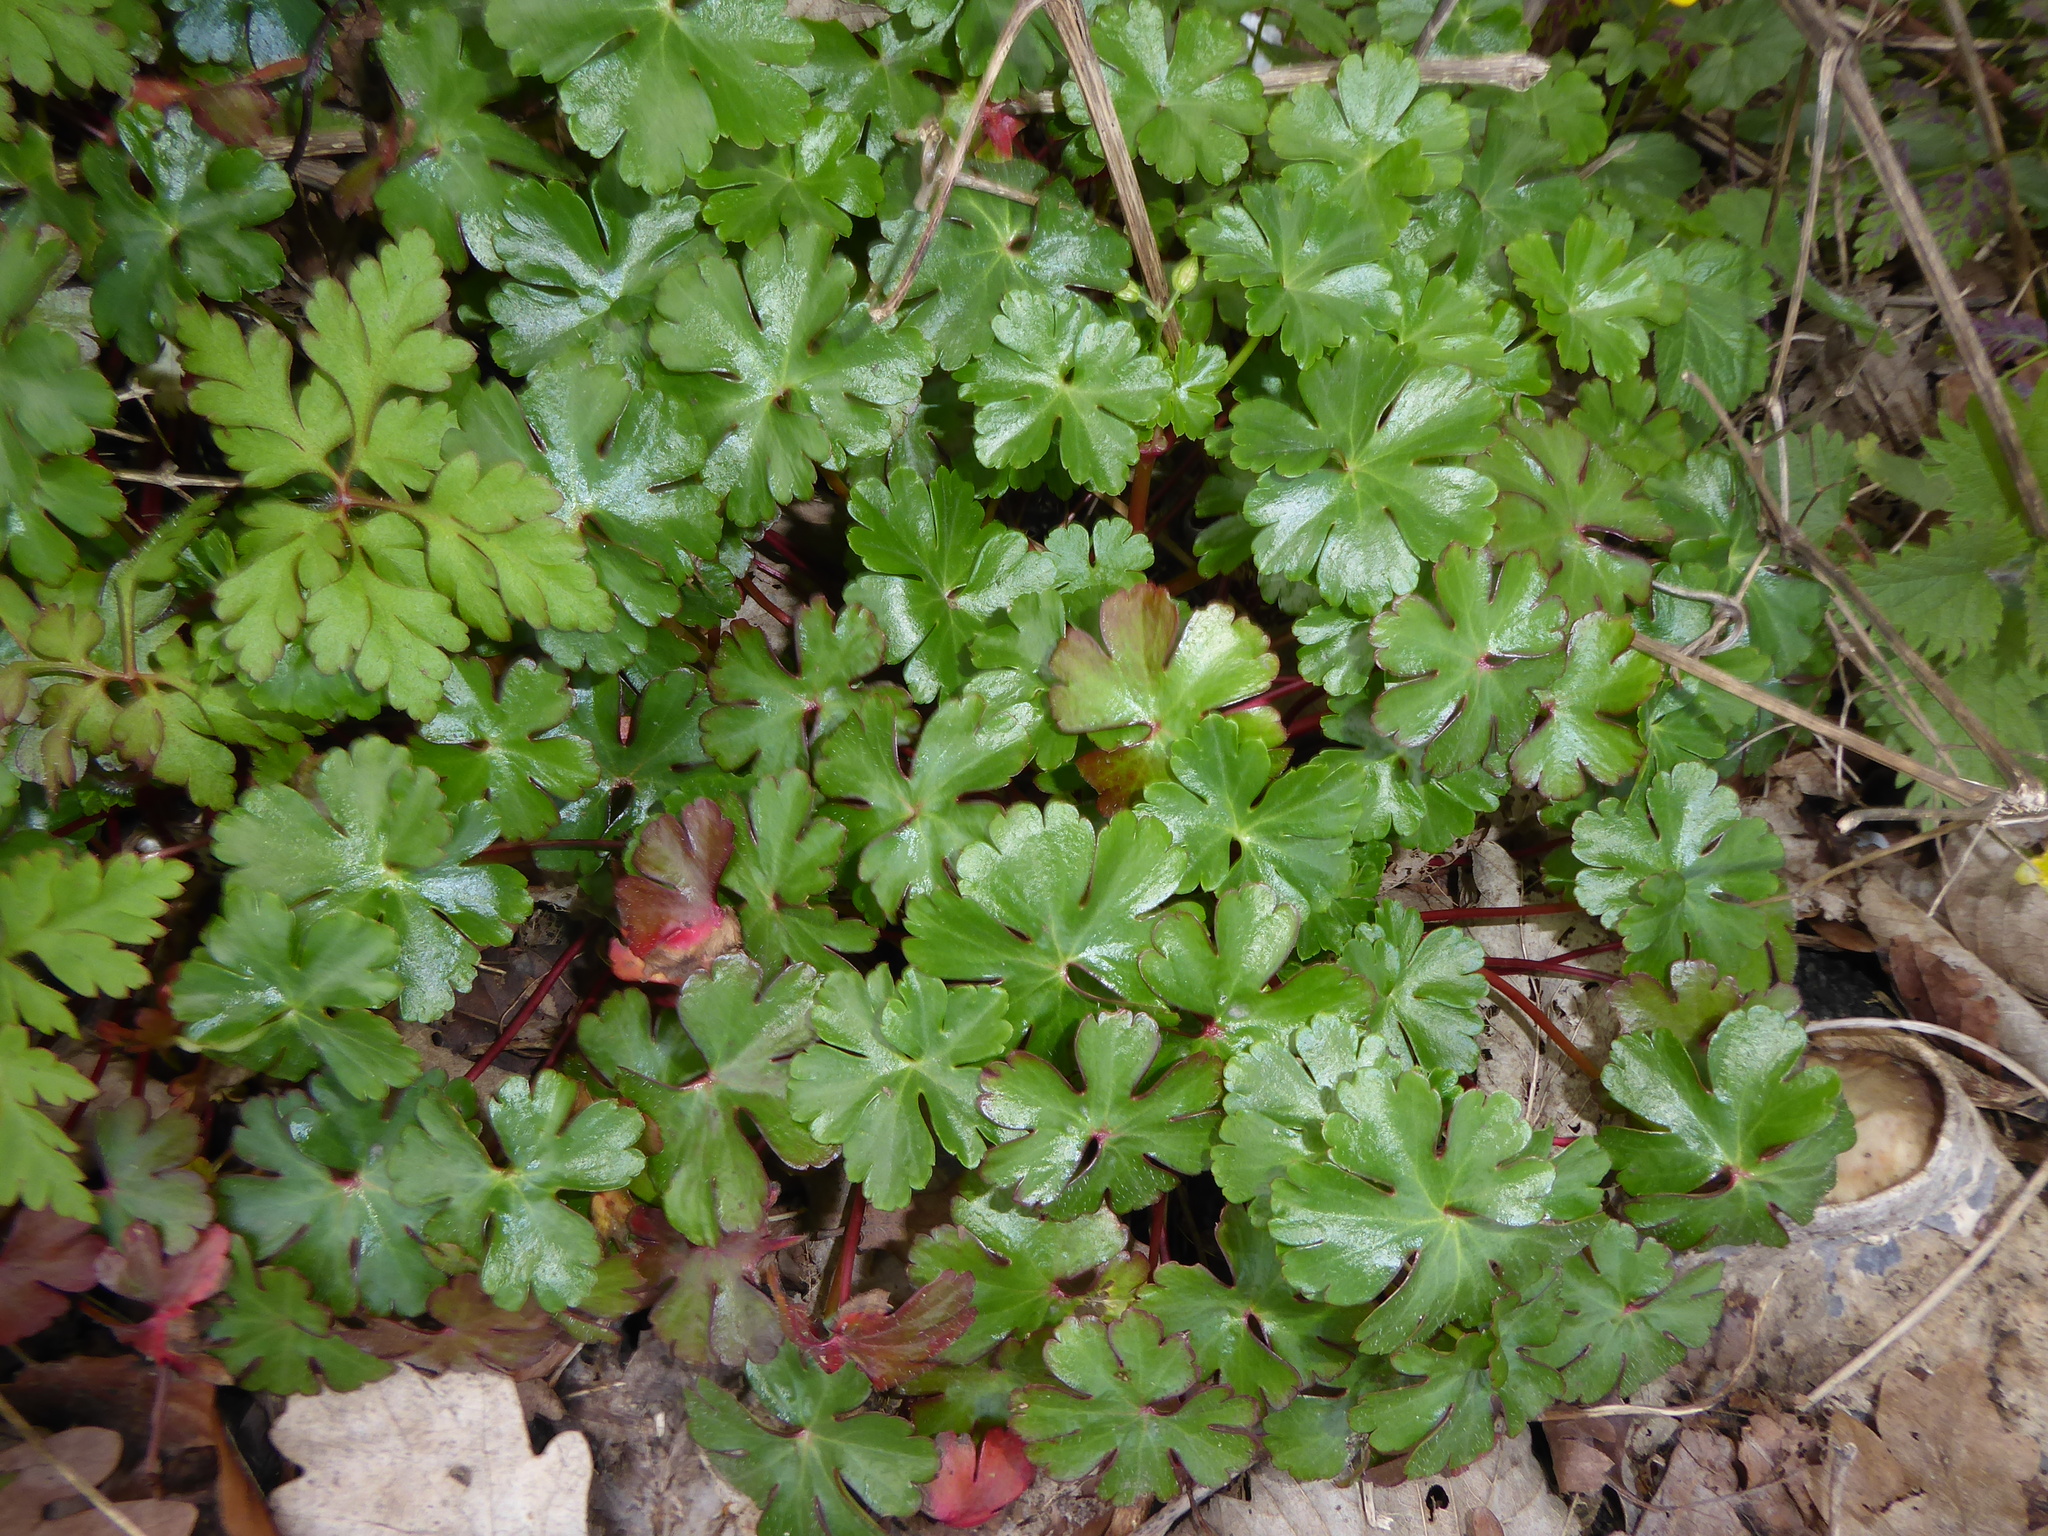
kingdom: Plantae
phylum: Tracheophyta
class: Magnoliopsida
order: Geraniales
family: Geraniaceae
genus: Geranium
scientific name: Geranium lucidum
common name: Shining crane's-bill
